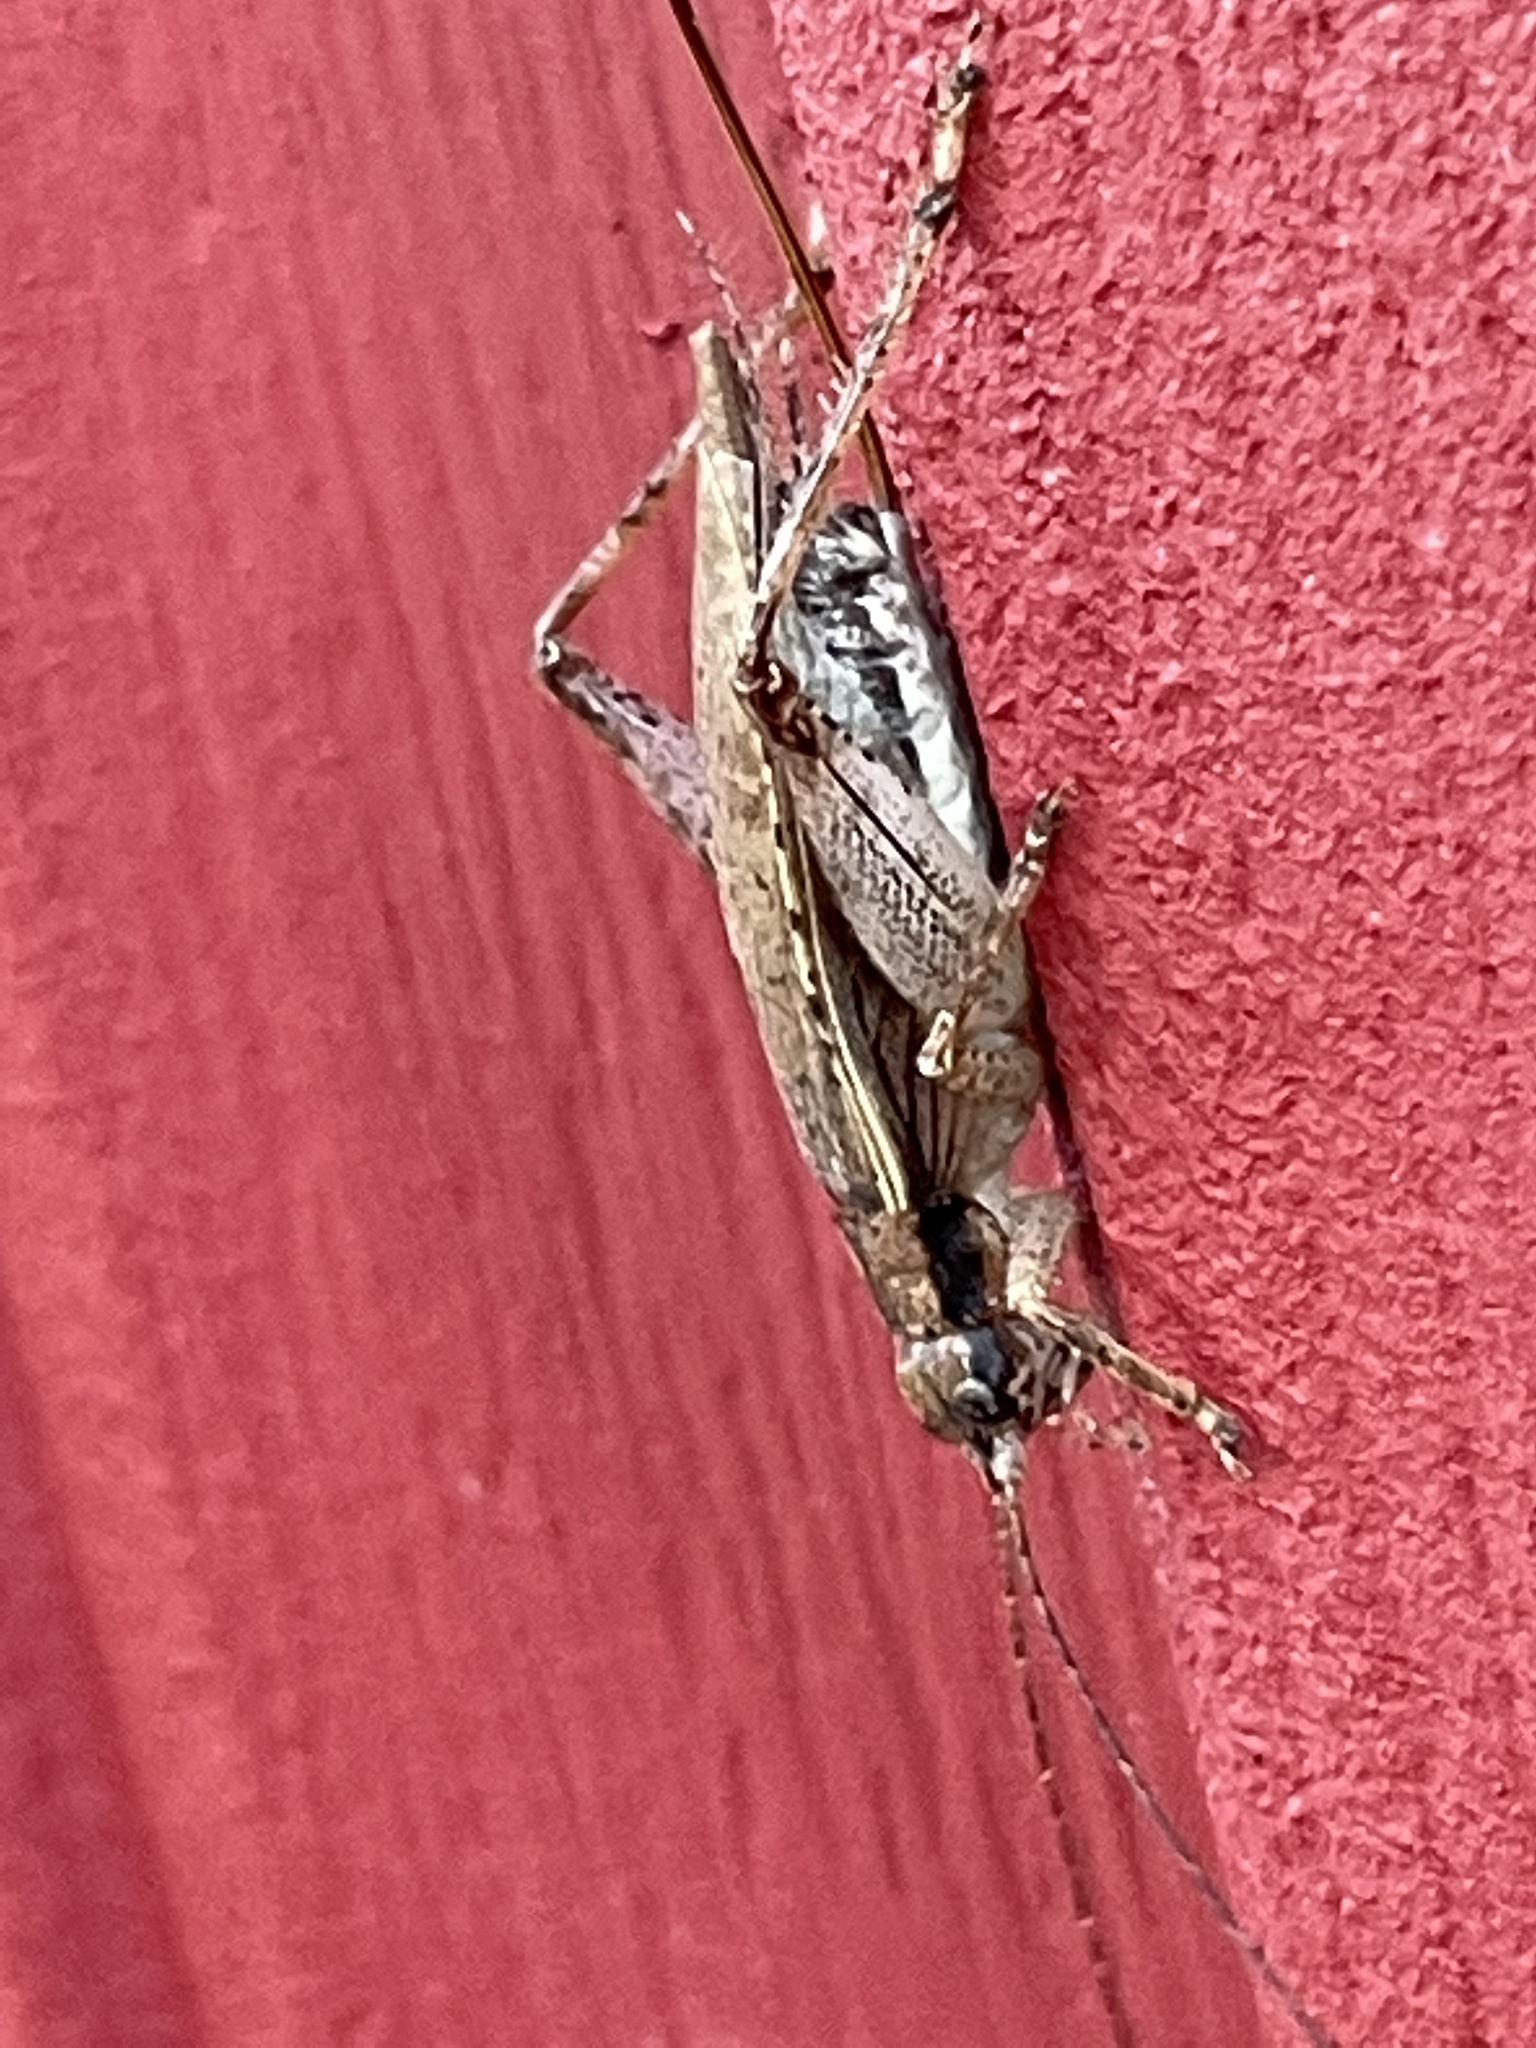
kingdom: Animalia
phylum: Arthropoda
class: Insecta
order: Orthoptera
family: Gryllidae
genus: Hapithus
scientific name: Hapithus saltator
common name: Jumping bush cricket
